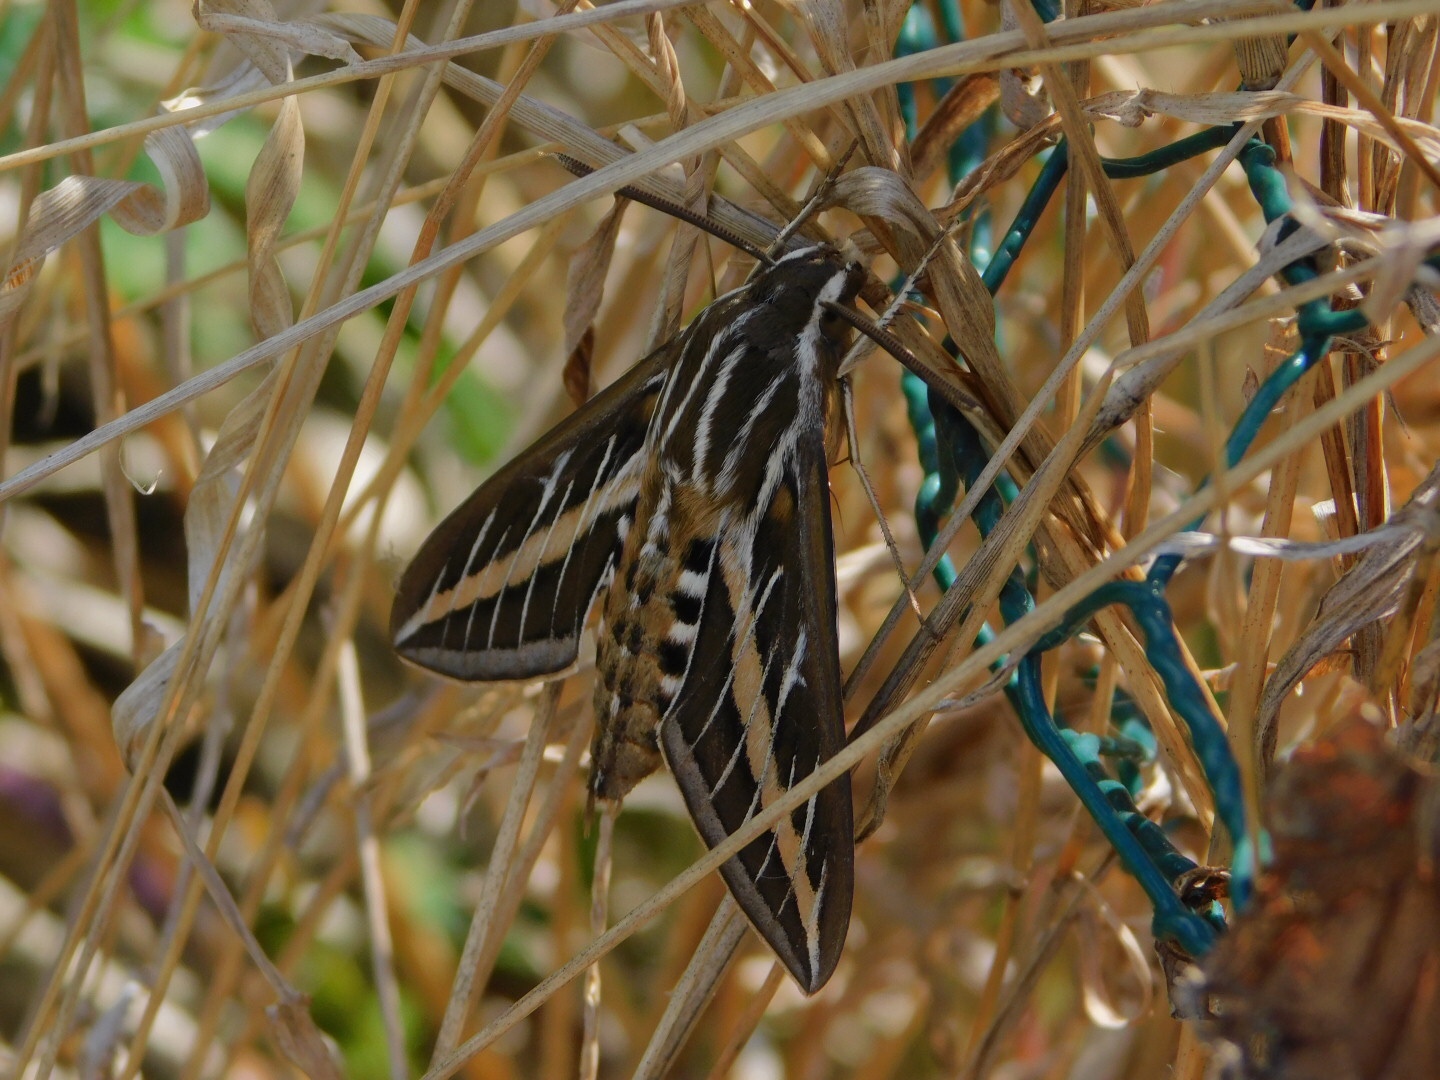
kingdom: Animalia
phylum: Arthropoda
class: Insecta
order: Lepidoptera
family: Sphingidae
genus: Hyles
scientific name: Hyles lineata
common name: White-lined sphinx
